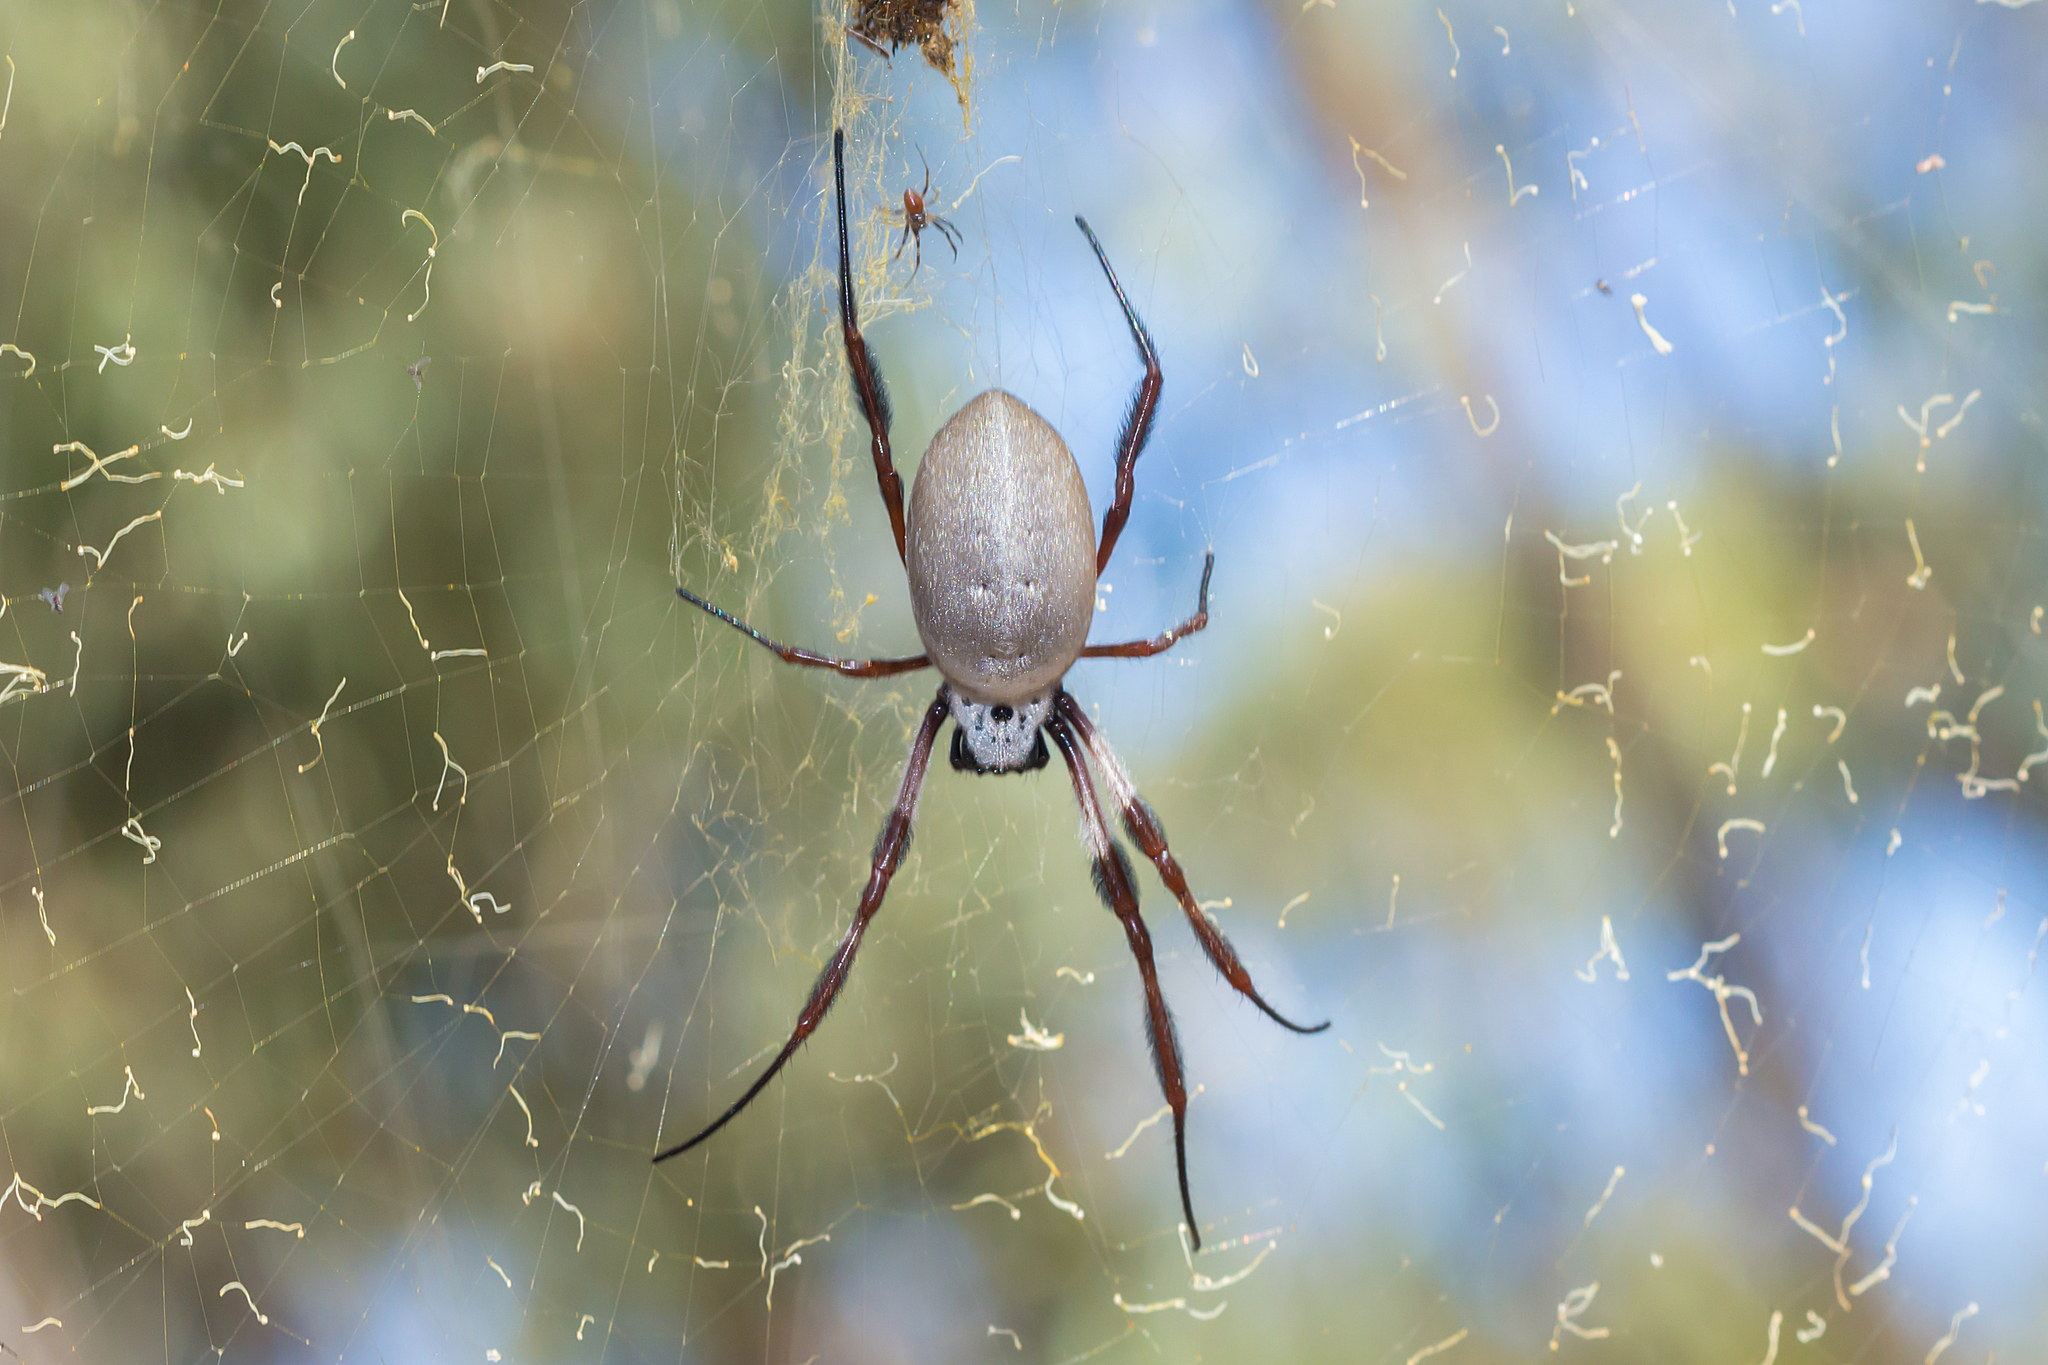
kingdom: Animalia
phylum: Arthropoda
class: Arachnida
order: Araneae
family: Araneidae
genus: Trichonephila
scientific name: Trichonephila edulis
